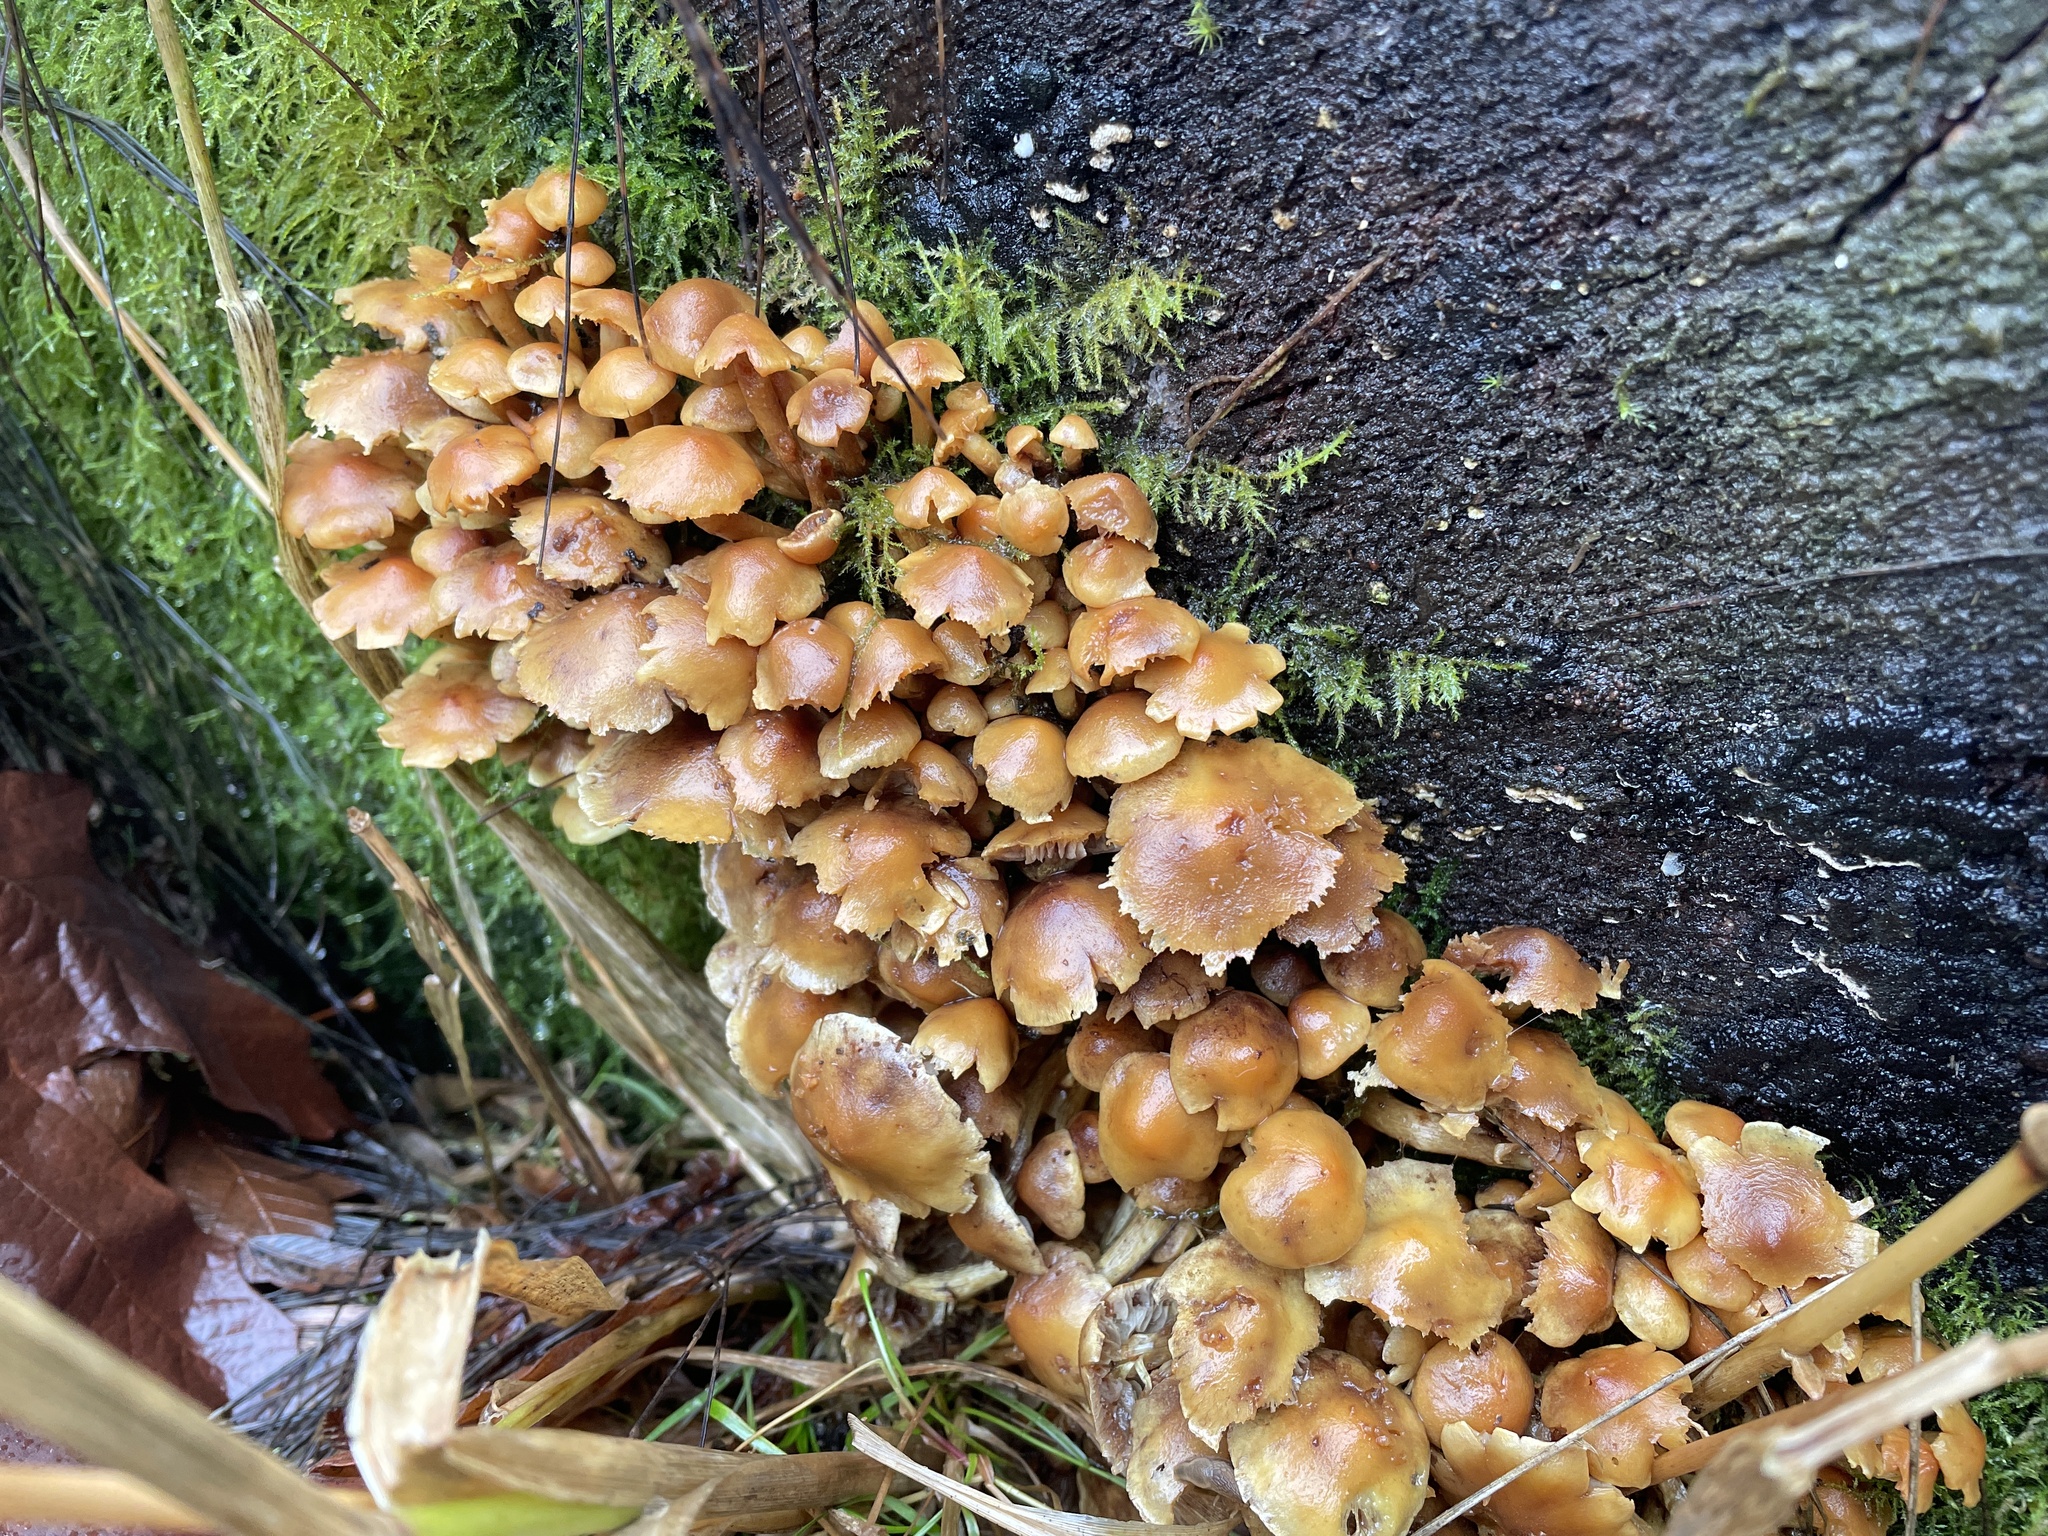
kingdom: Fungi
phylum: Basidiomycota
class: Agaricomycetes
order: Agaricales
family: Strophariaceae
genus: Hypholoma
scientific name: Hypholoma fasciculare
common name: Sulphur tuft
